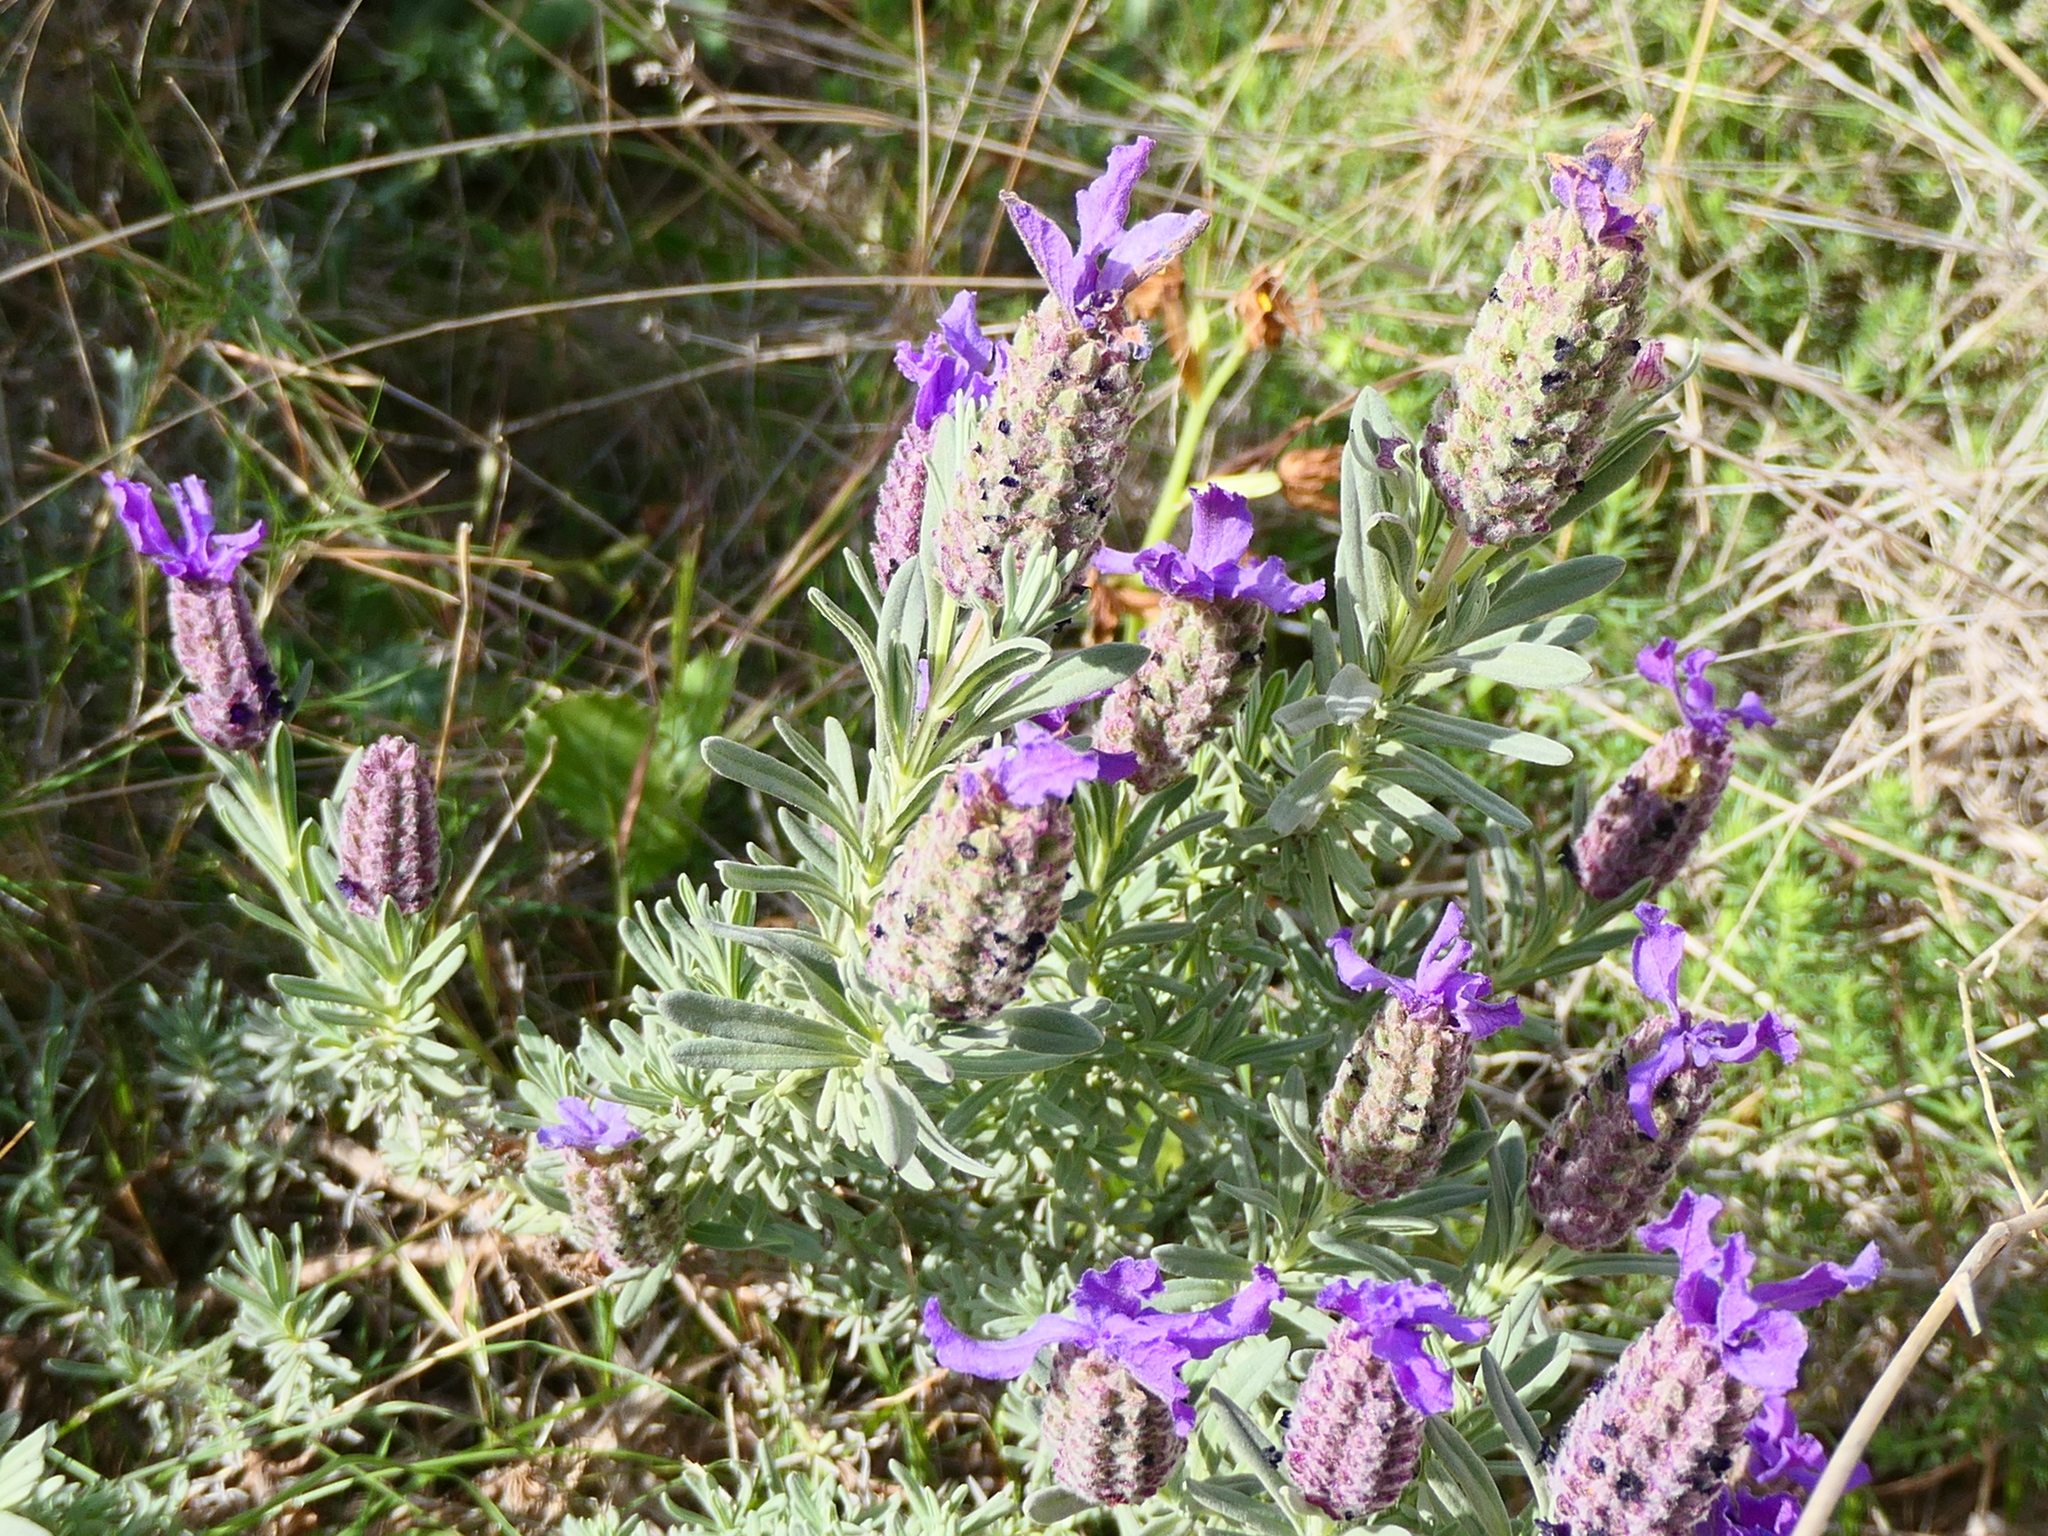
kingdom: Plantae
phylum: Tracheophyta
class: Magnoliopsida
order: Lamiales
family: Lamiaceae
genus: Lavandula
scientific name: Lavandula stoechas
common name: French lavender
